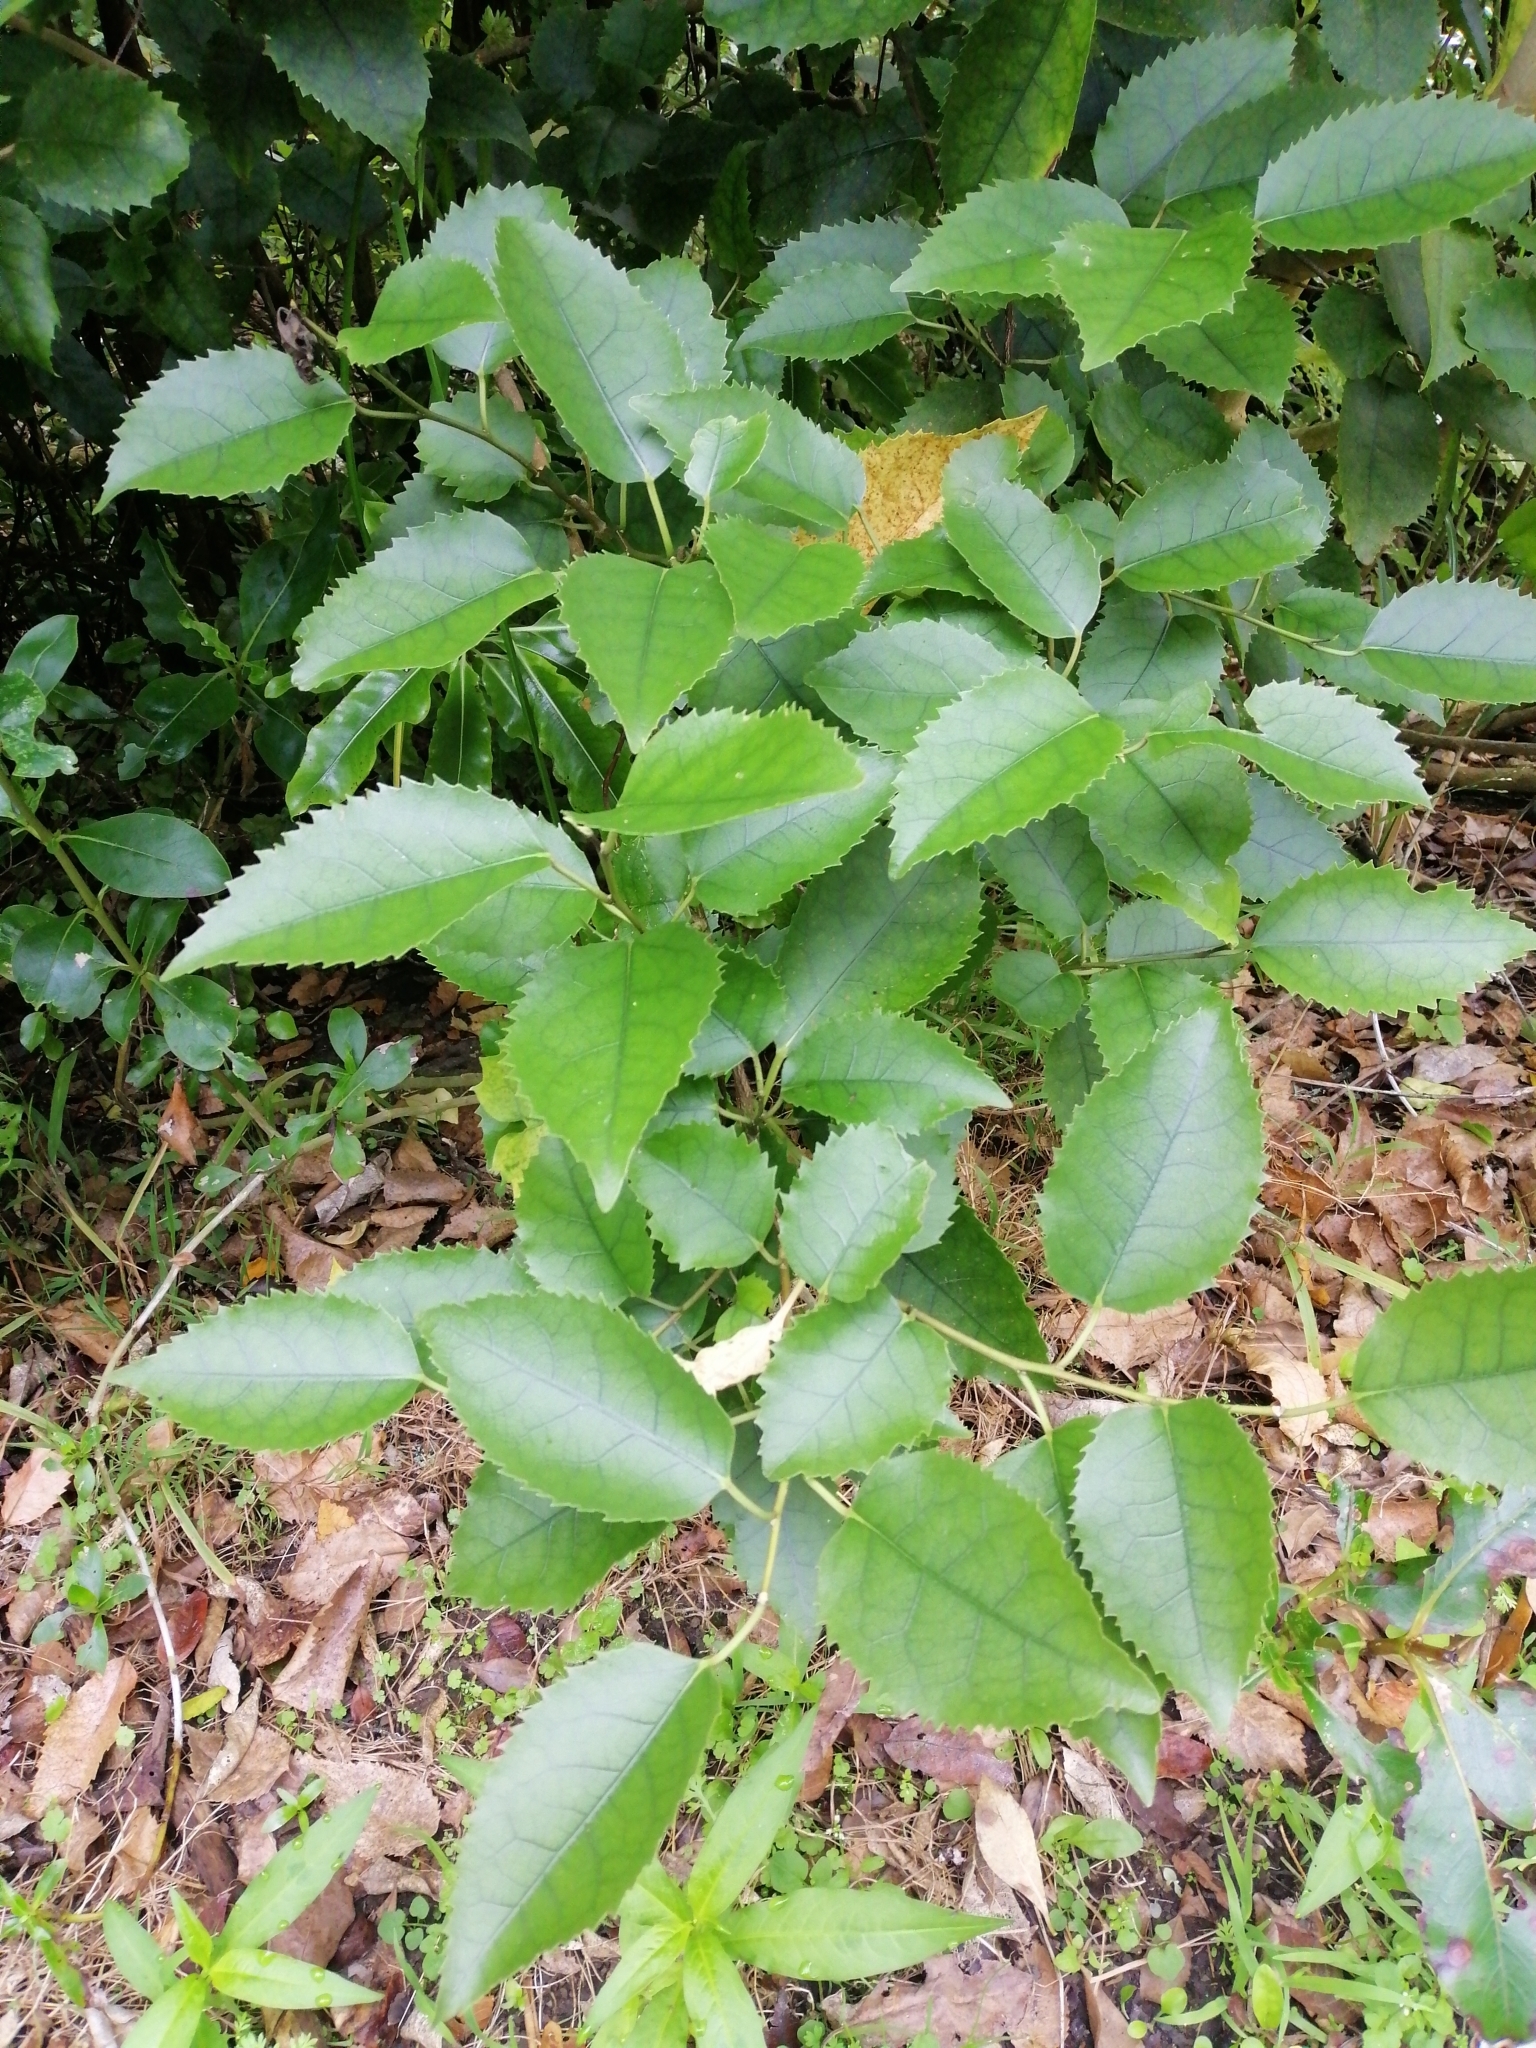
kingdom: Plantae
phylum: Tracheophyta
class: Magnoliopsida
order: Malvales
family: Malvaceae
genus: Hoheria
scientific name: Hoheria populnea
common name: Lacebark
